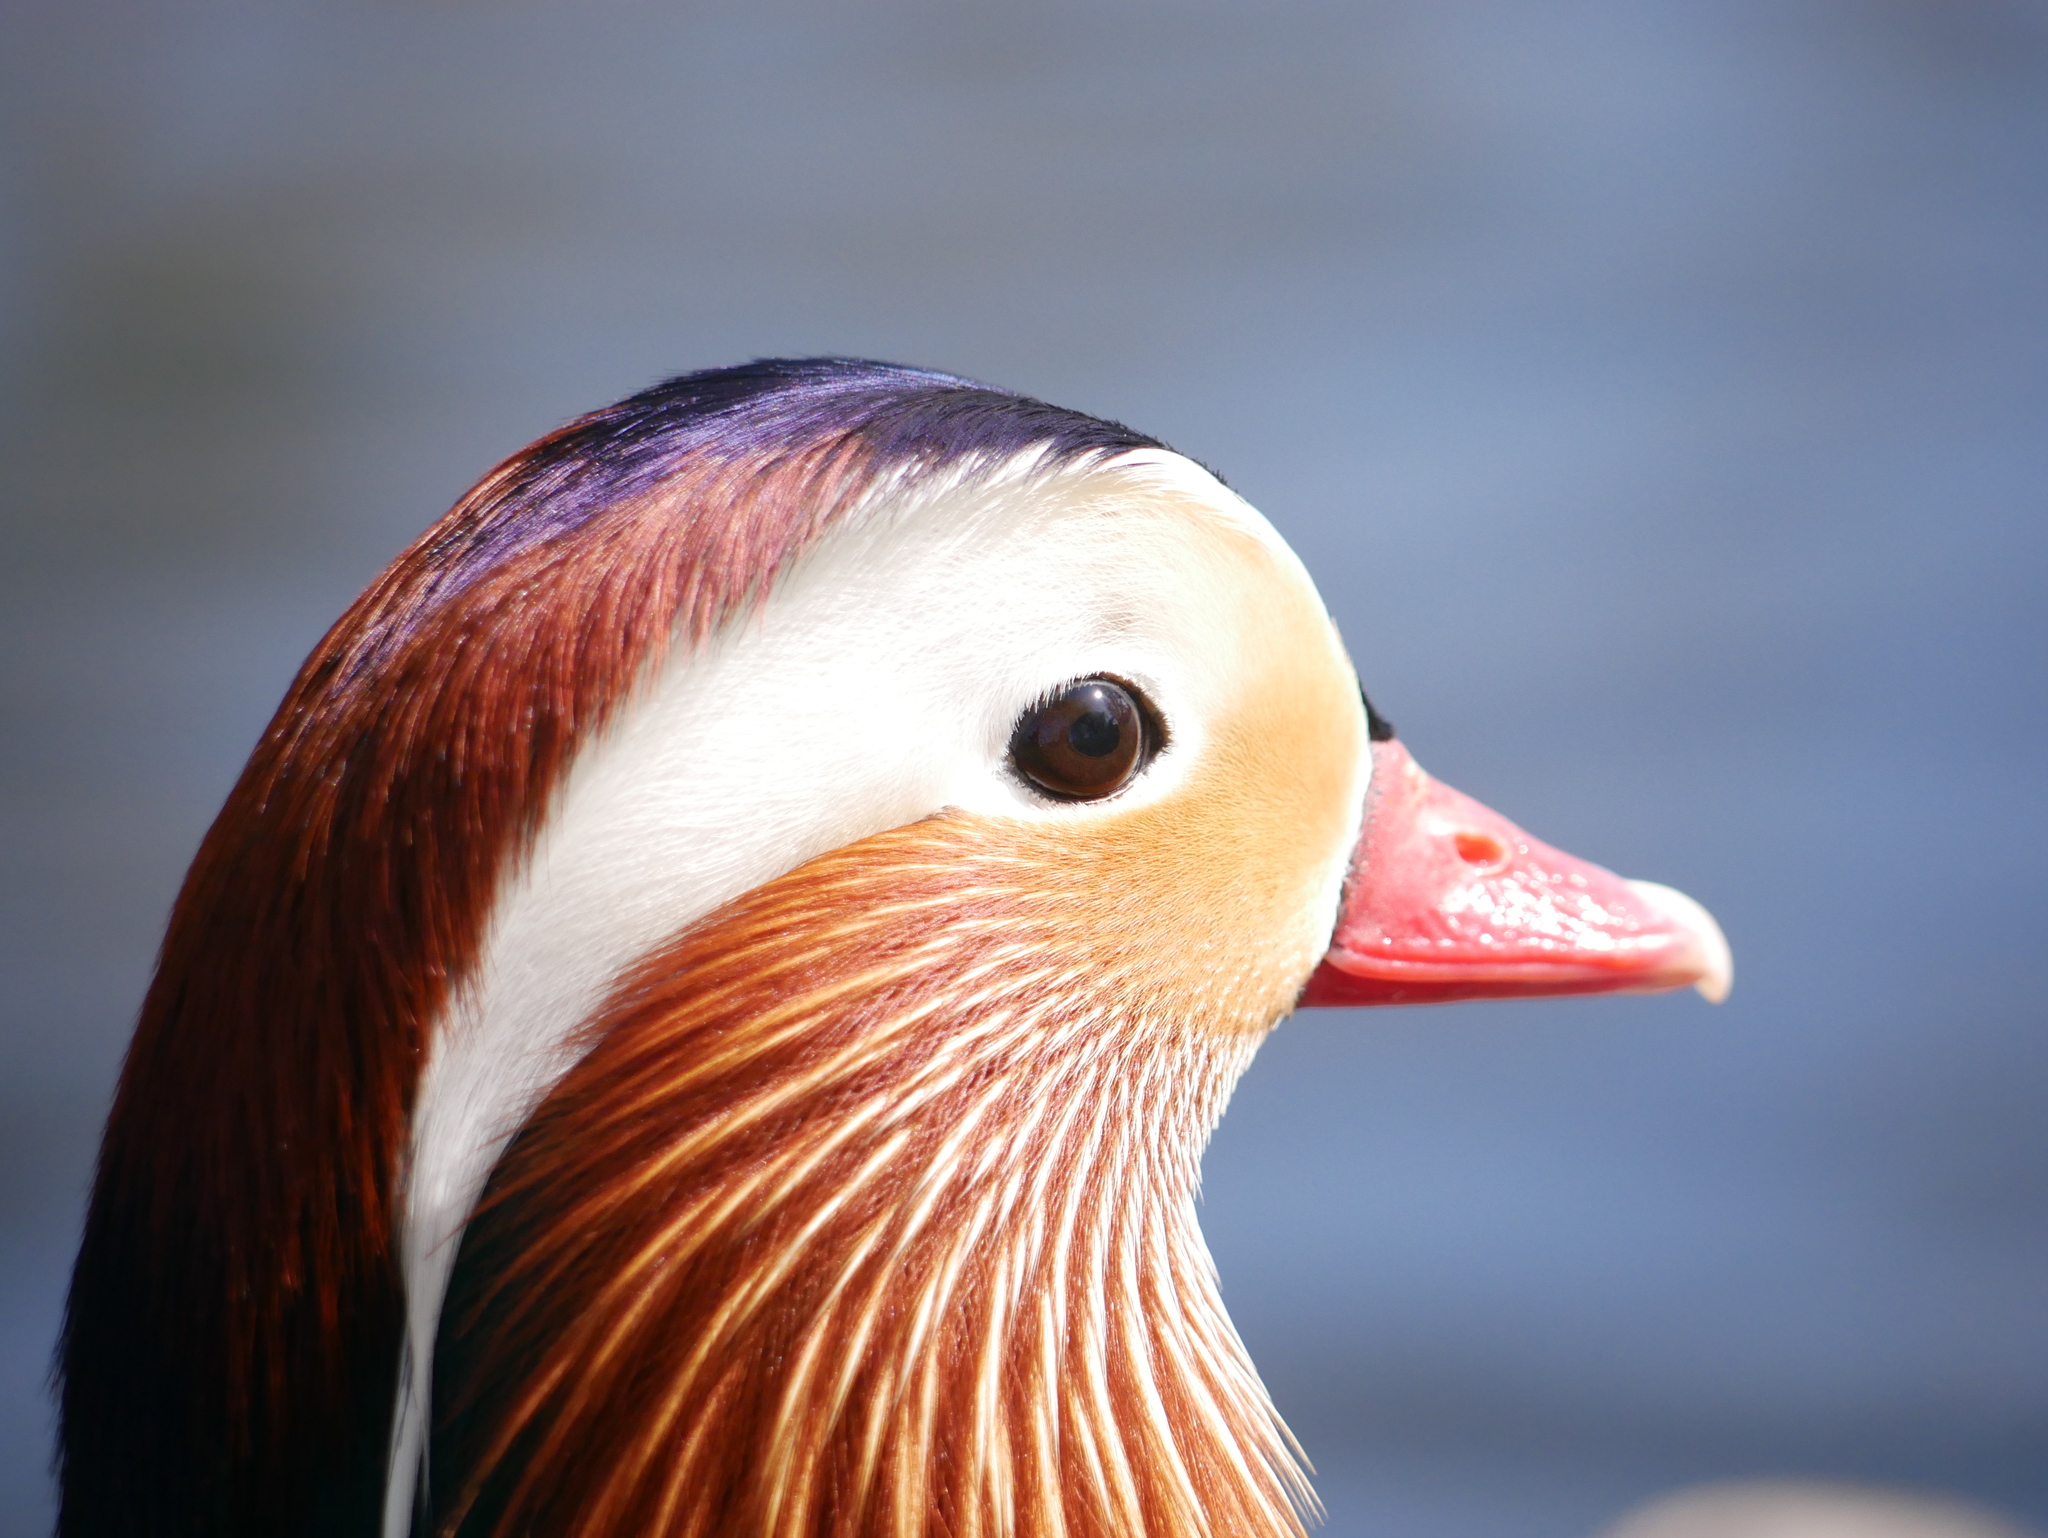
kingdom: Animalia
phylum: Chordata
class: Aves
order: Anseriformes
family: Anatidae
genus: Aix
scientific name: Aix galericulata
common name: Mandarin duck
